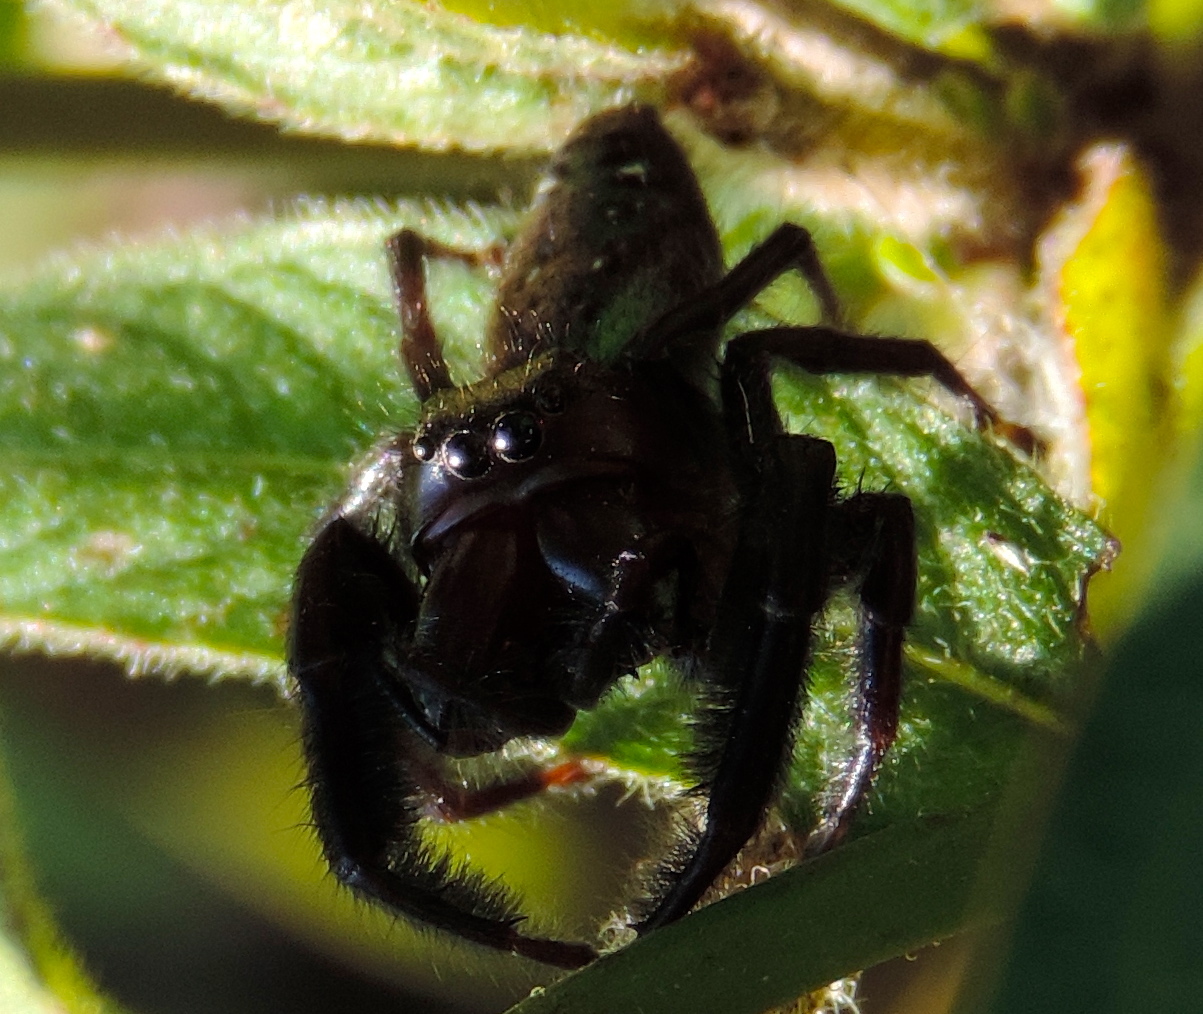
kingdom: Animalia
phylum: Arthropoda
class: Arachnida
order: Araneae
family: Salticidae
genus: Paraphidippus
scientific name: Paraphidippus
